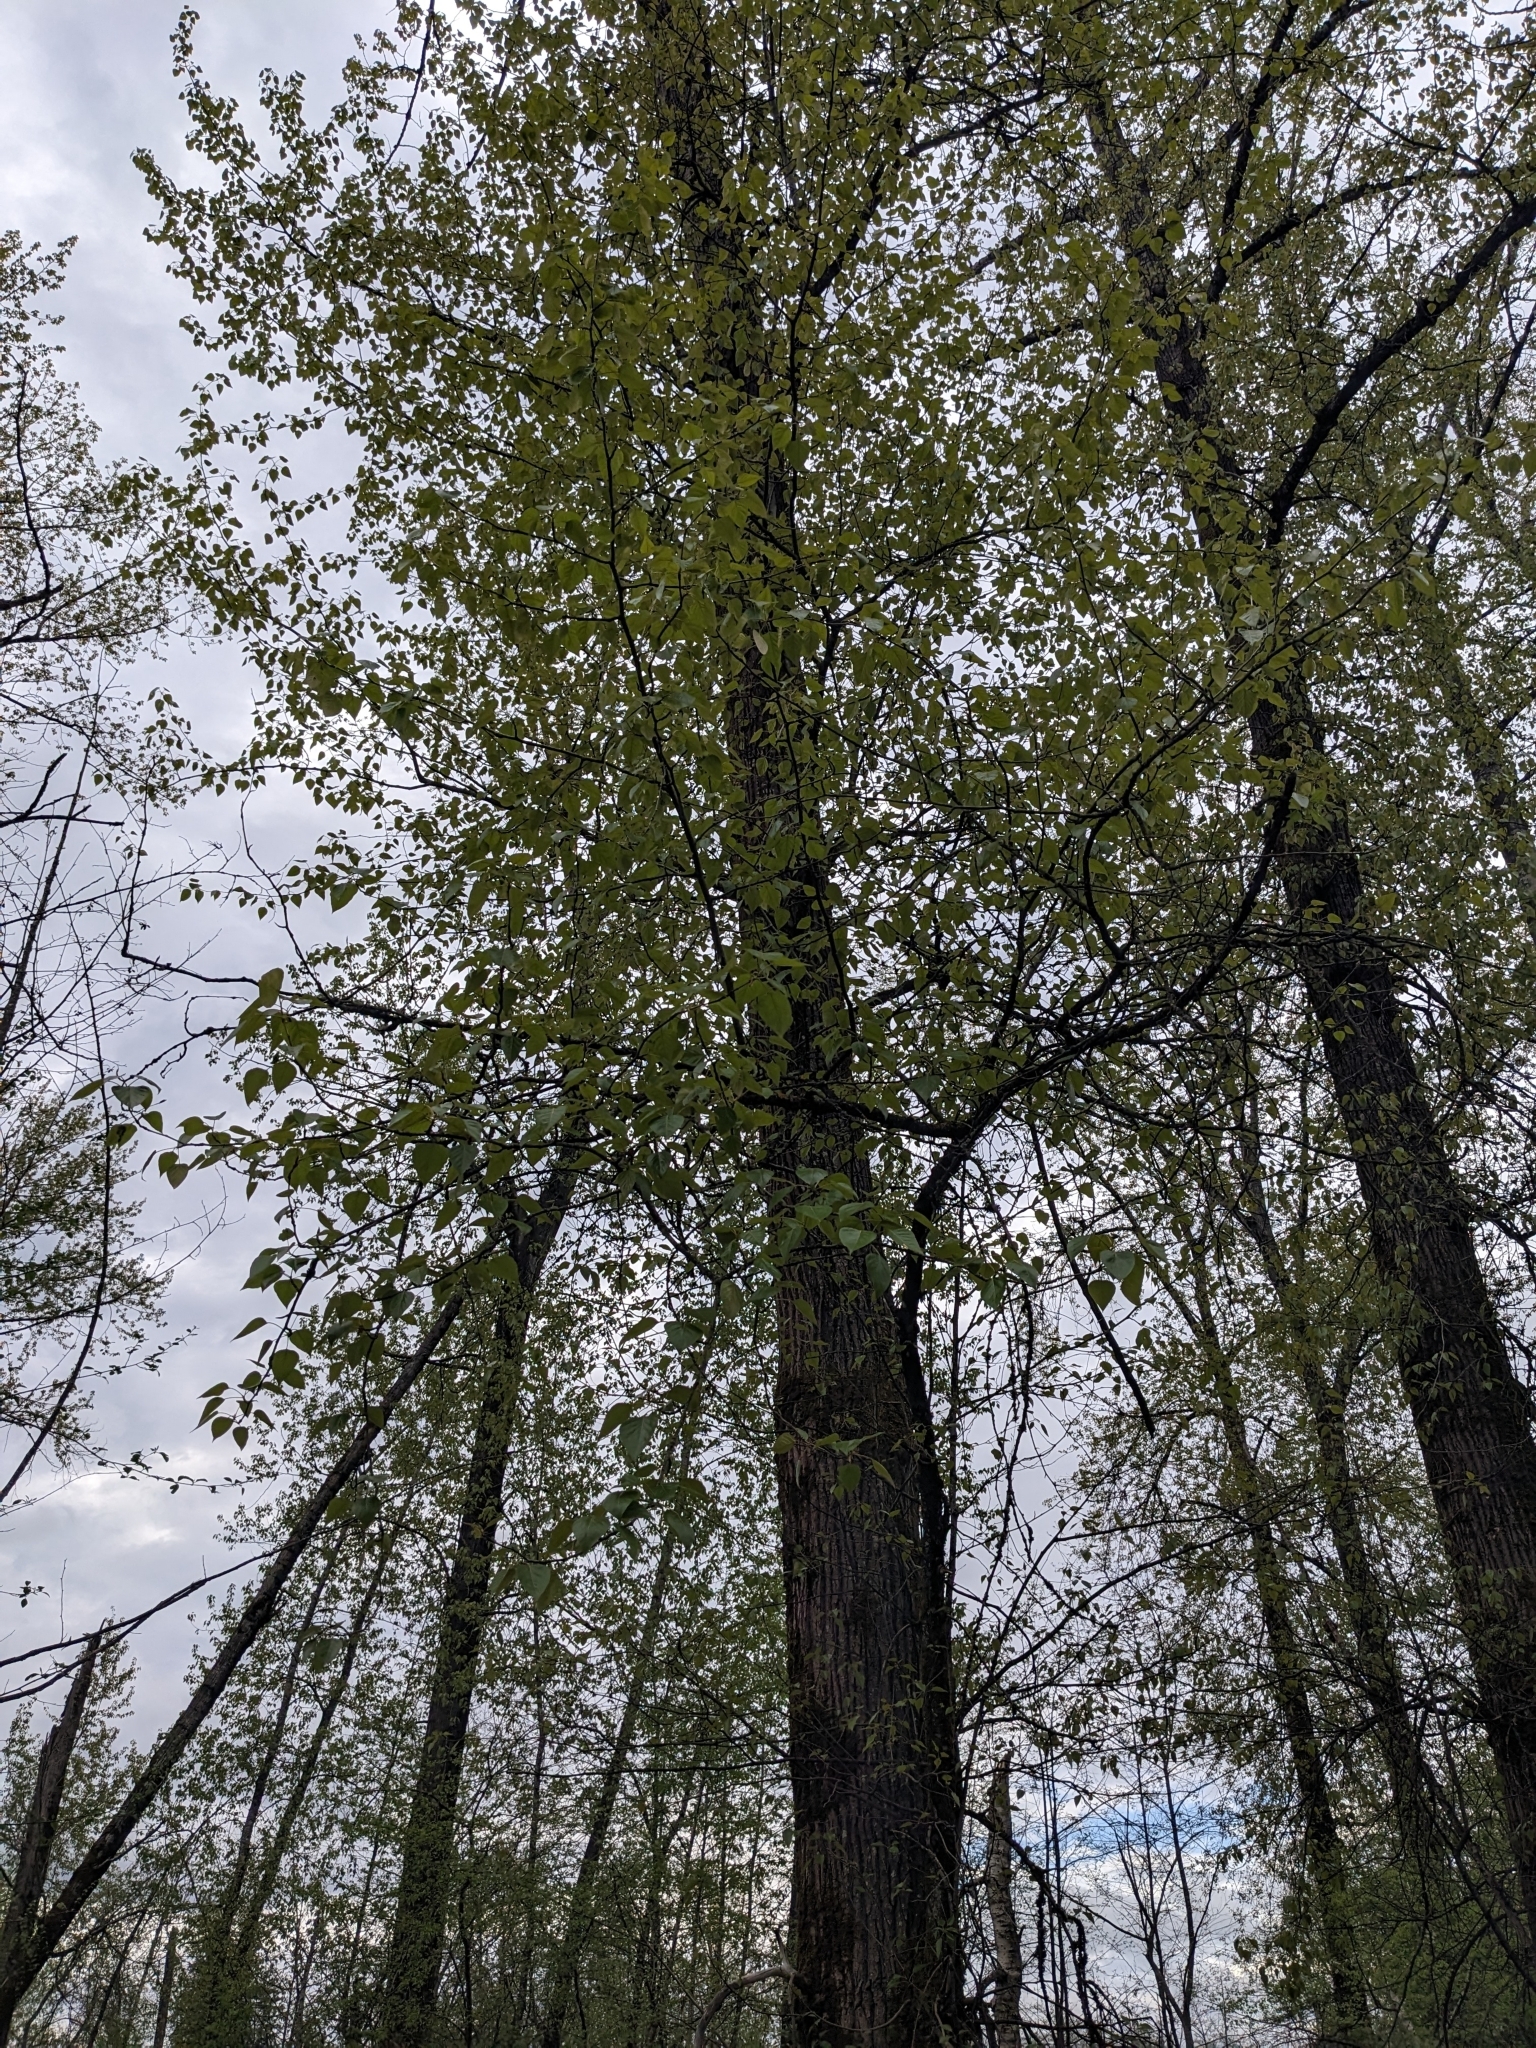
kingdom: Plantae
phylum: Tracheophyta
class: Magnoliopsida
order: Malpighiales
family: Salicaceae
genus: Populus
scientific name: Populus trichocarpa
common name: Black cottonwood
